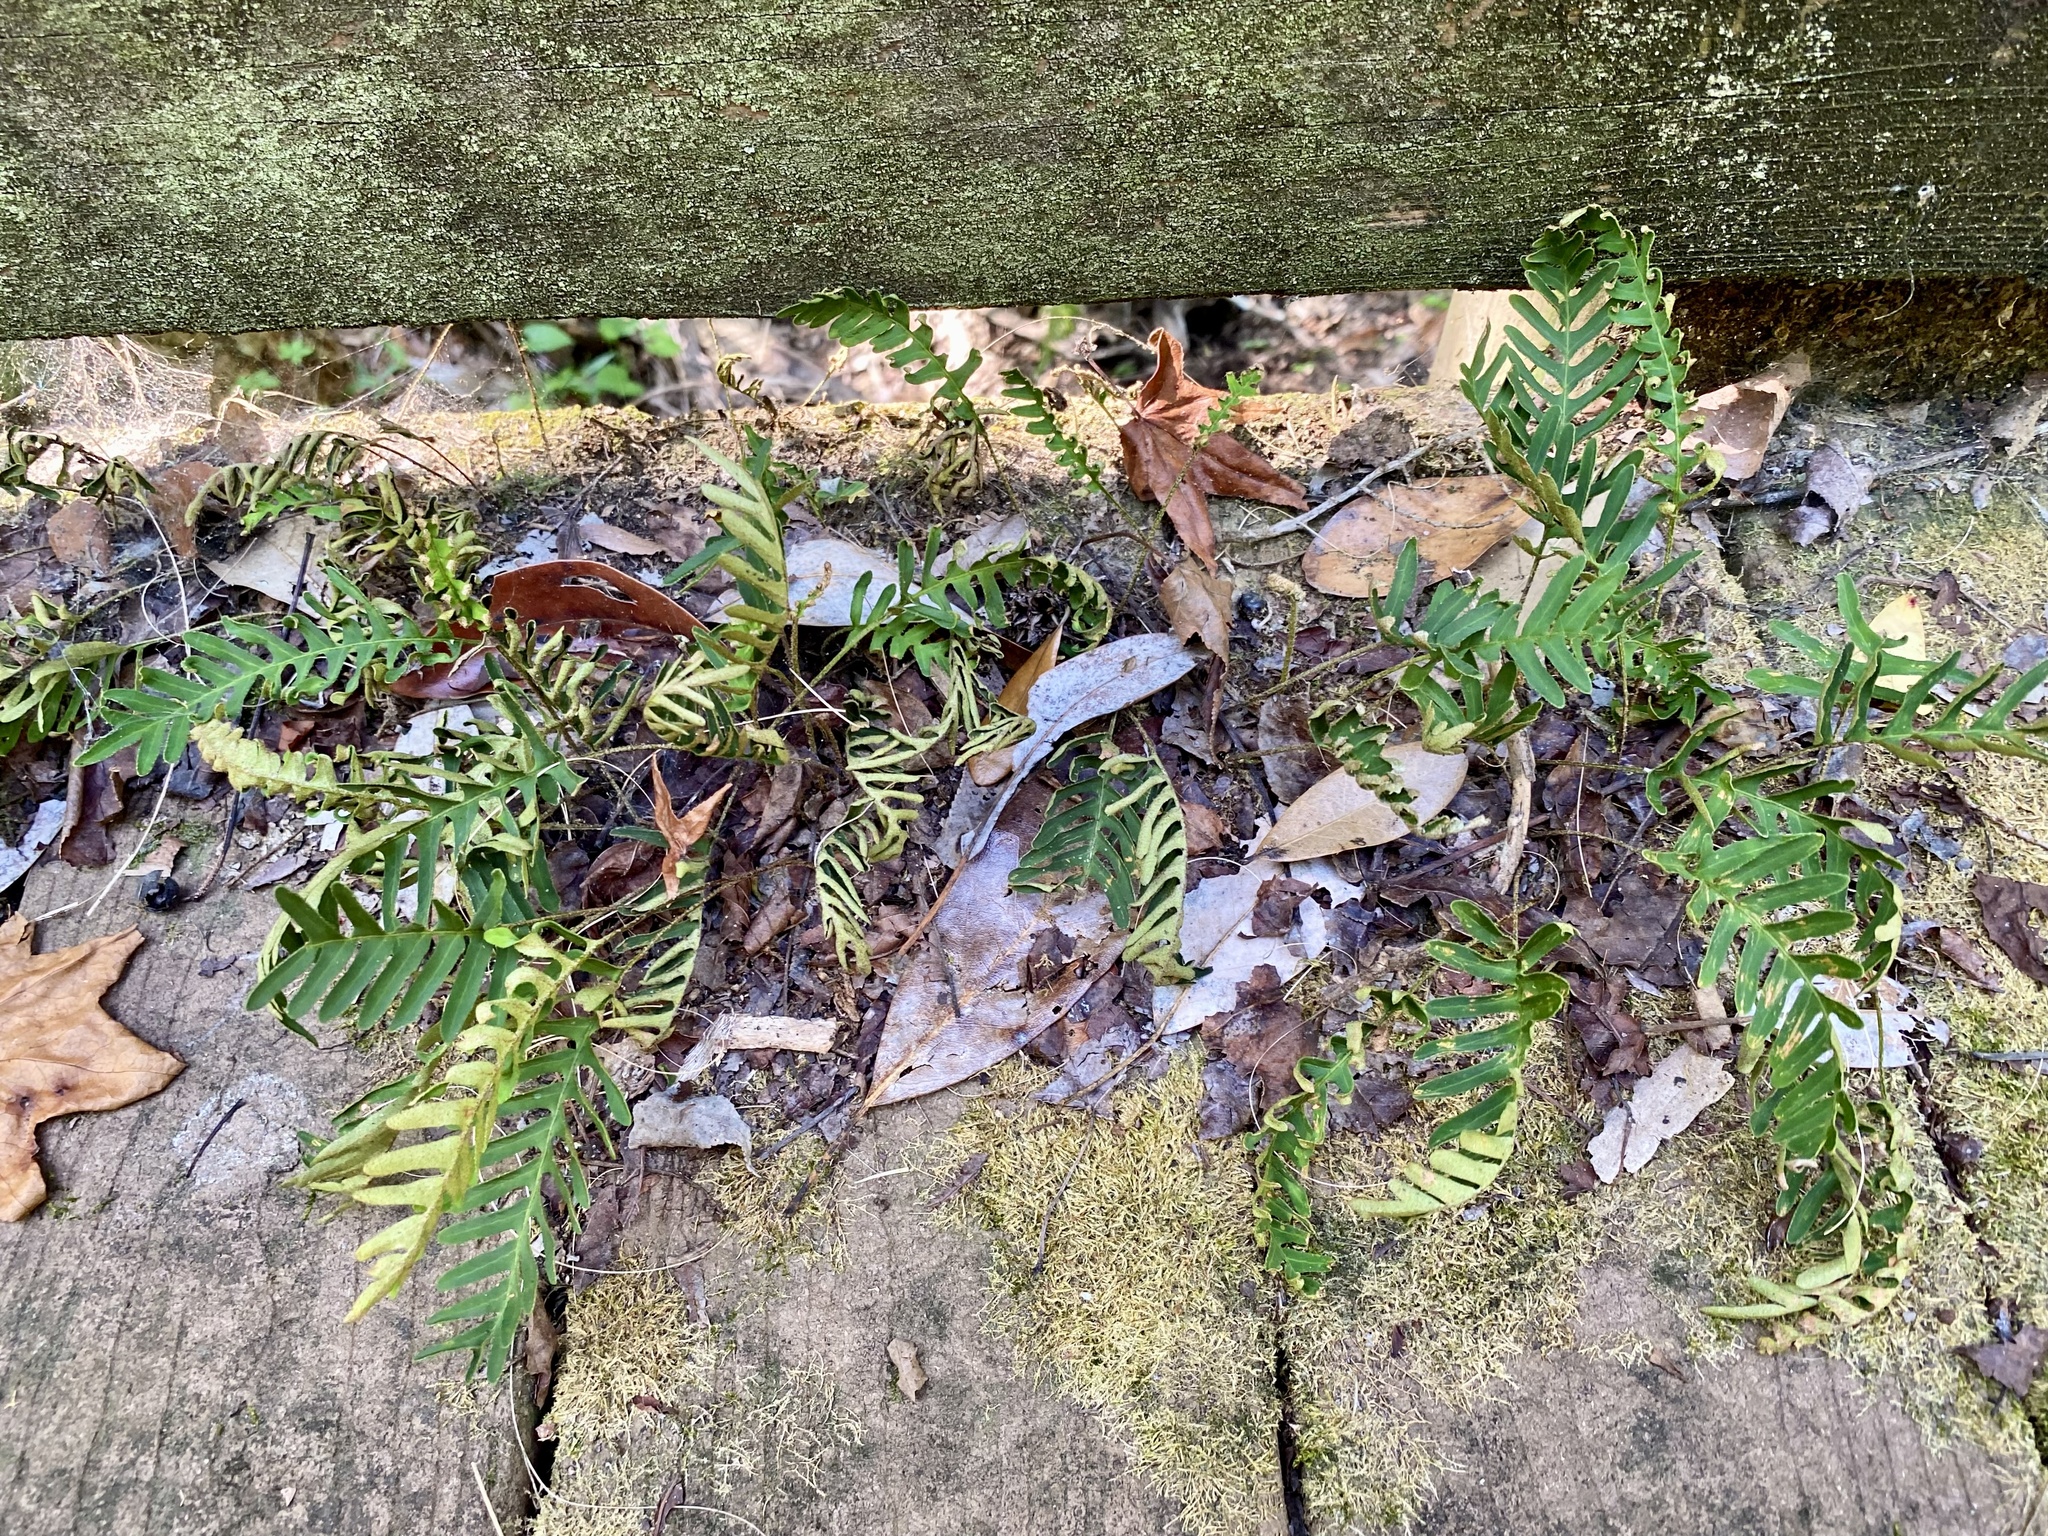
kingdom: Plantae
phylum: Tracheophyta
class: Polypodiopsida
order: Polypodiales
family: Polypodiaceae
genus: Pleopeltis
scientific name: Pleopeltis michauxiana
